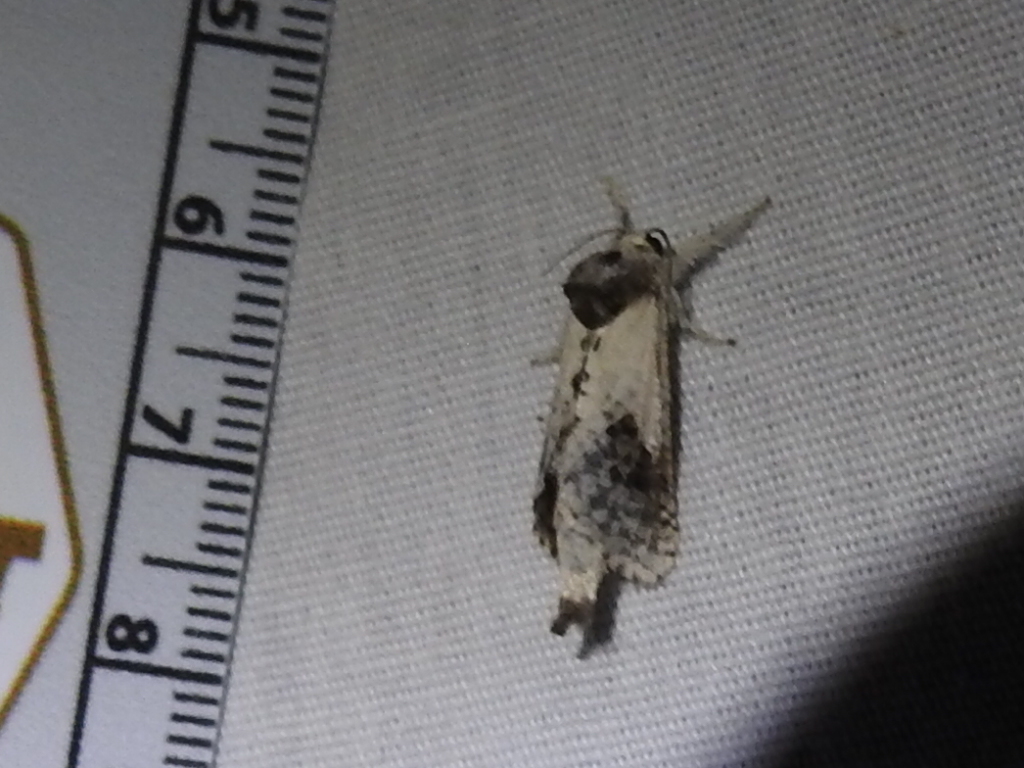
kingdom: Animalia
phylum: Arthropoda
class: Insecta
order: Lepidoptera
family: Cossidae
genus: Givira
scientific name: Givira theodori
